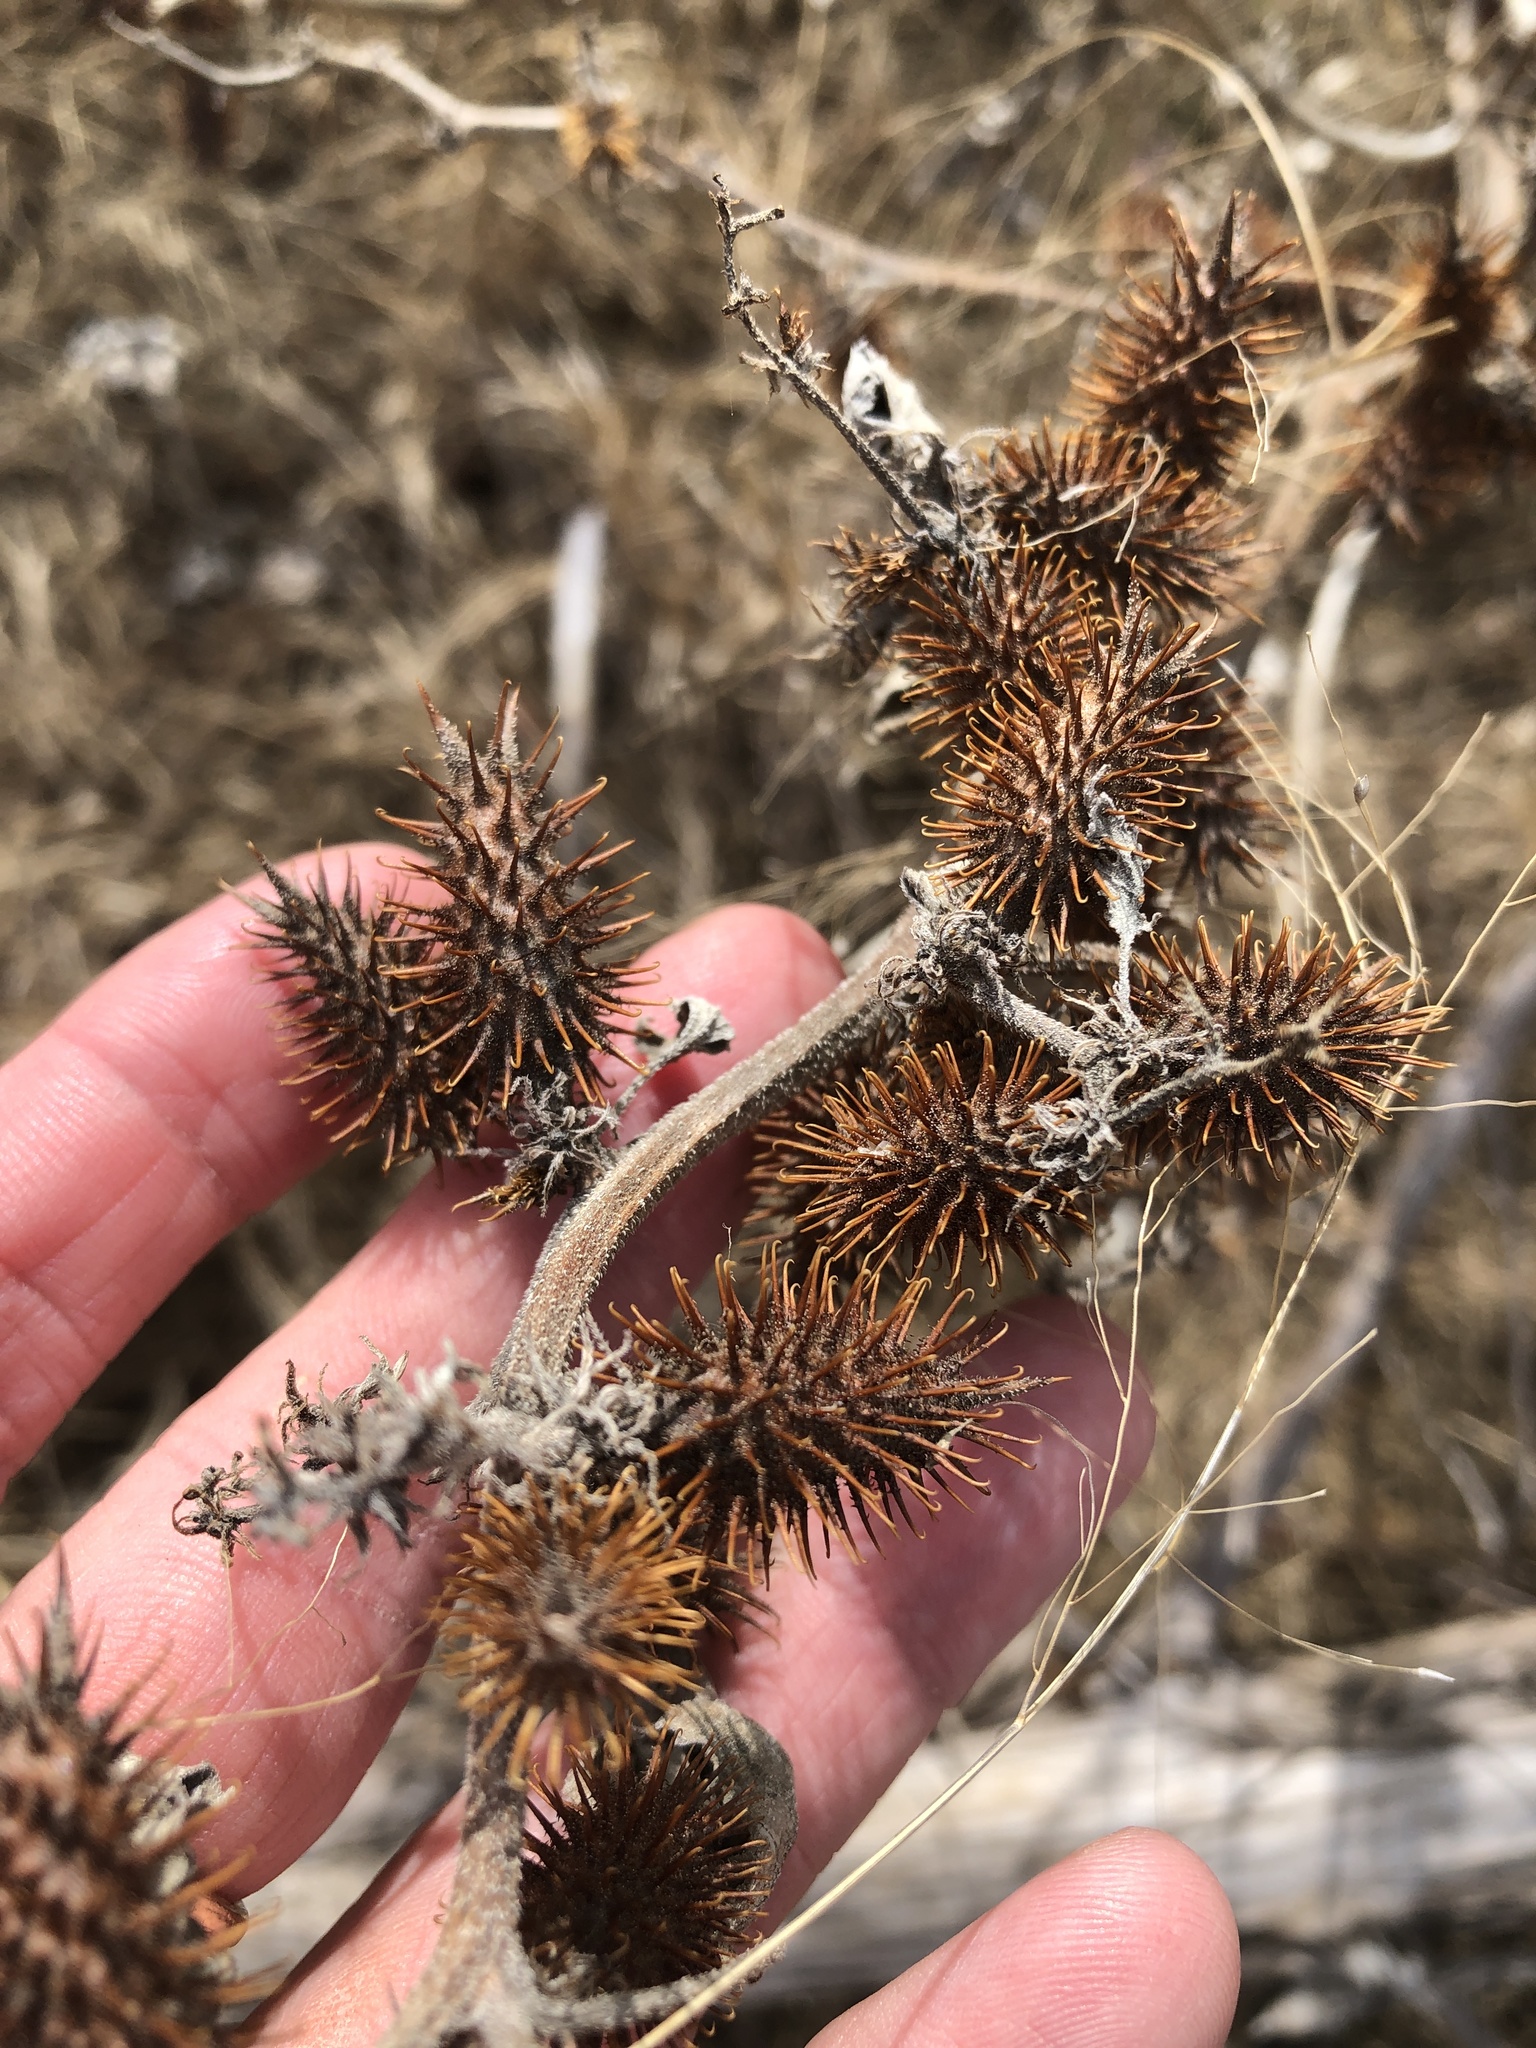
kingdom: Plantae
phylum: Tracheophyta
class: Magnoliopsida
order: Asterales
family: Asteraceae
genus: Xanthium
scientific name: Xanthium strumarium
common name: Rough cocklebur
